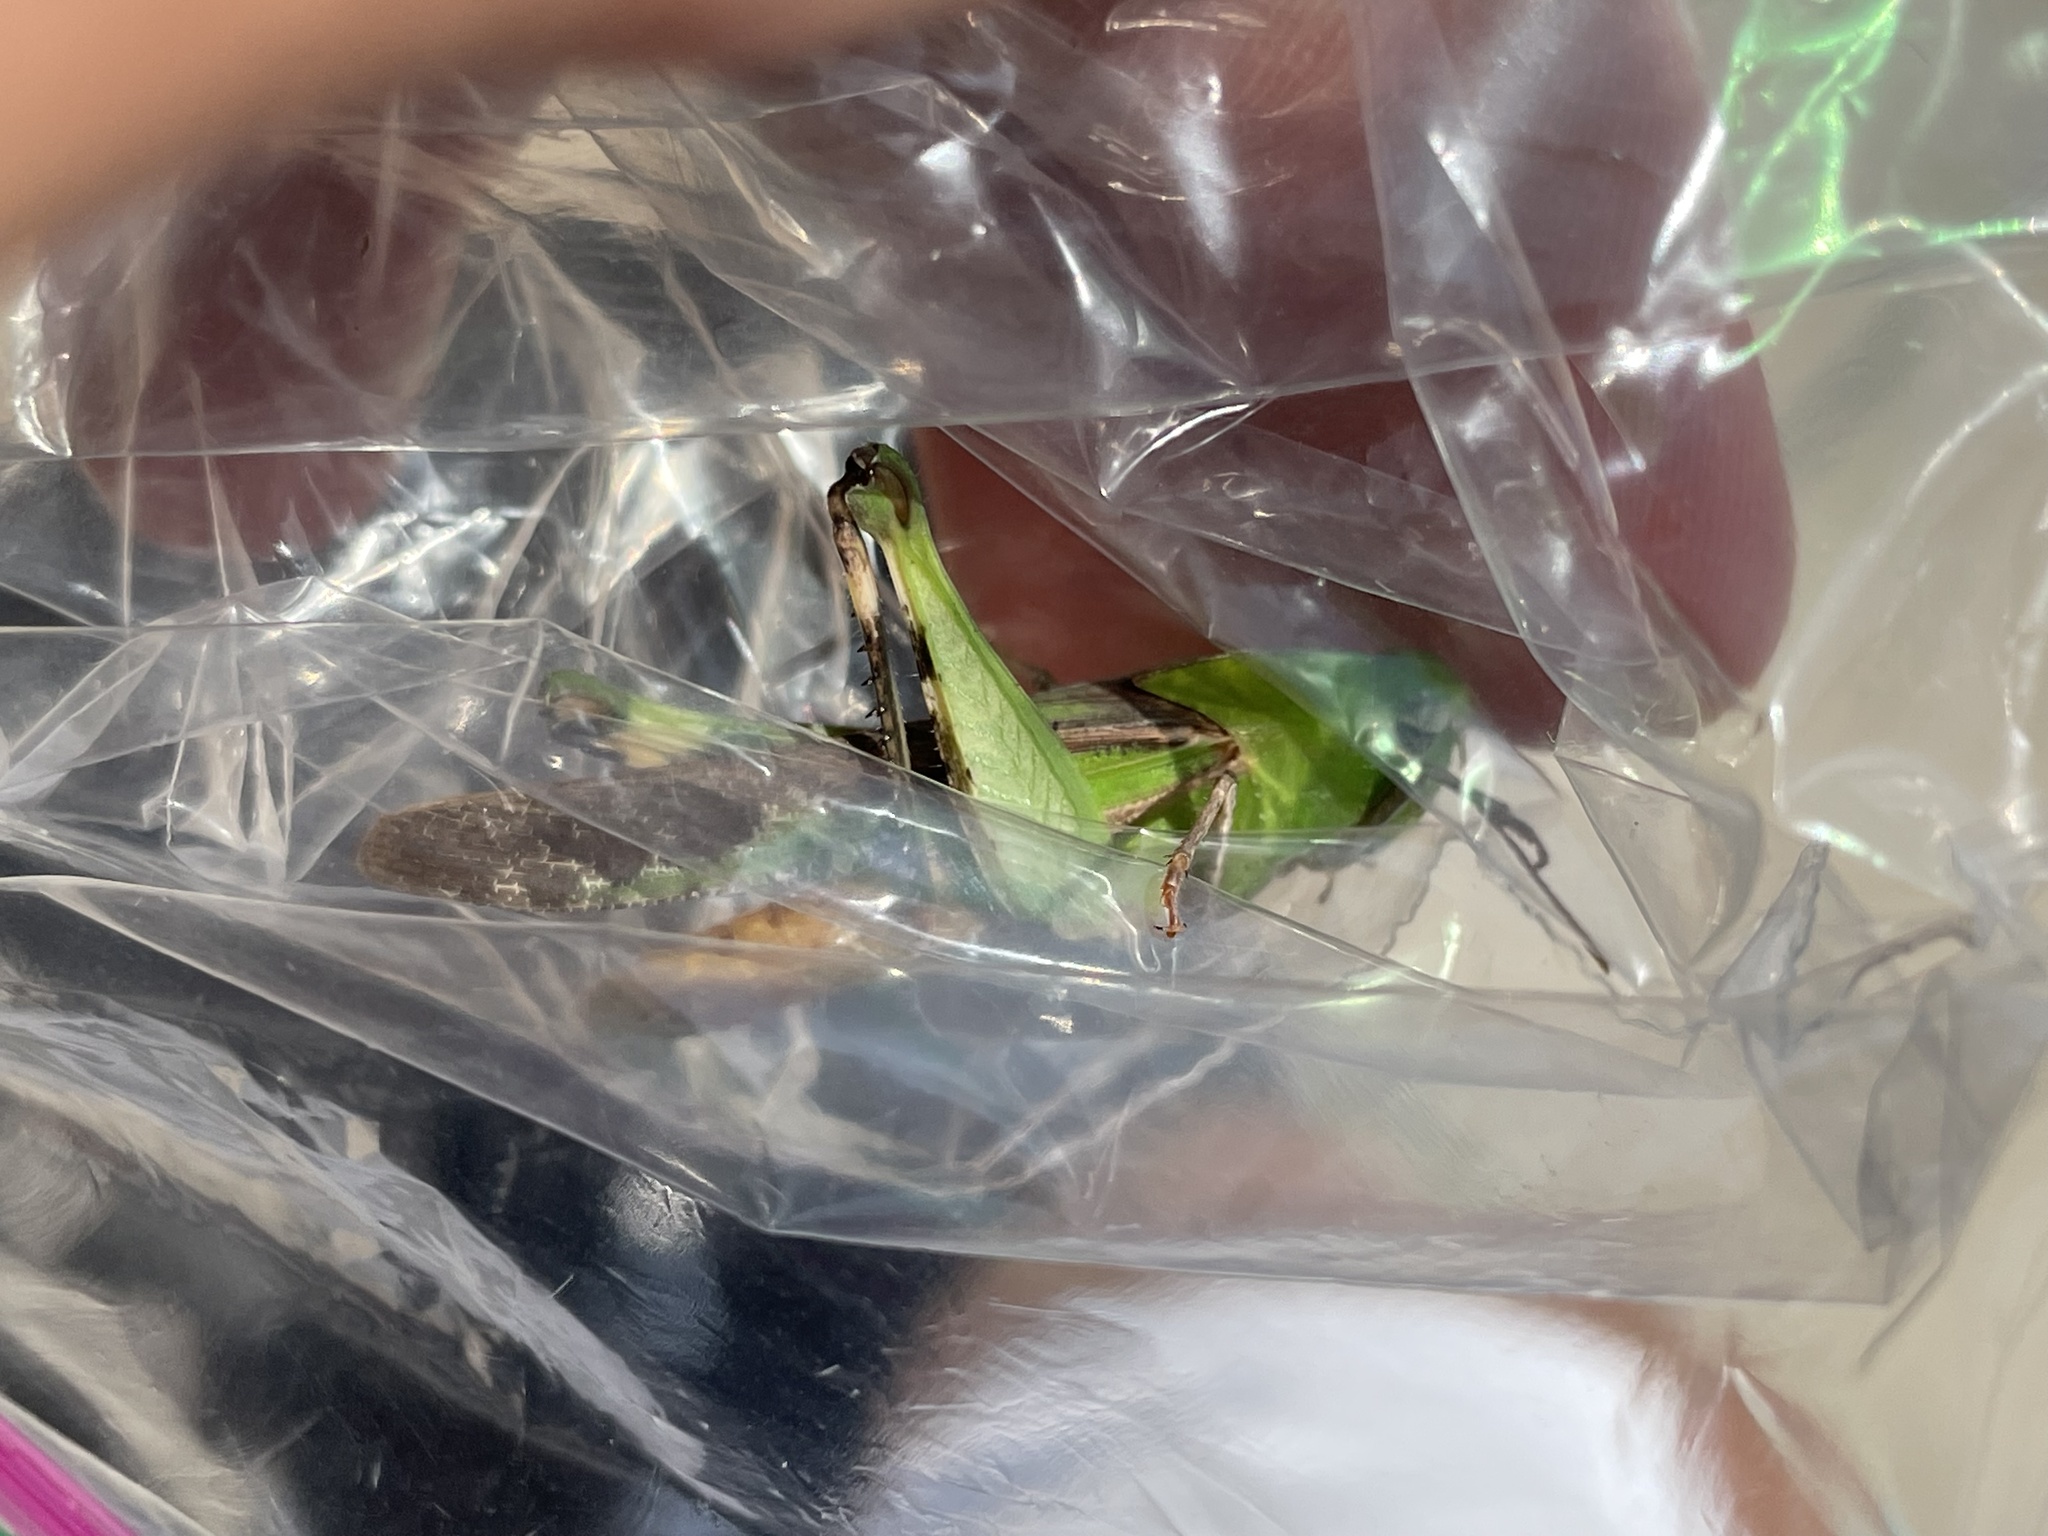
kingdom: Animalia
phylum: Arthropoda
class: Insecta
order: Orthoptera
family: Acrididae
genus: Chortophaga
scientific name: Chortophaga viridifasciata
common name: Green-striped grasshopper
